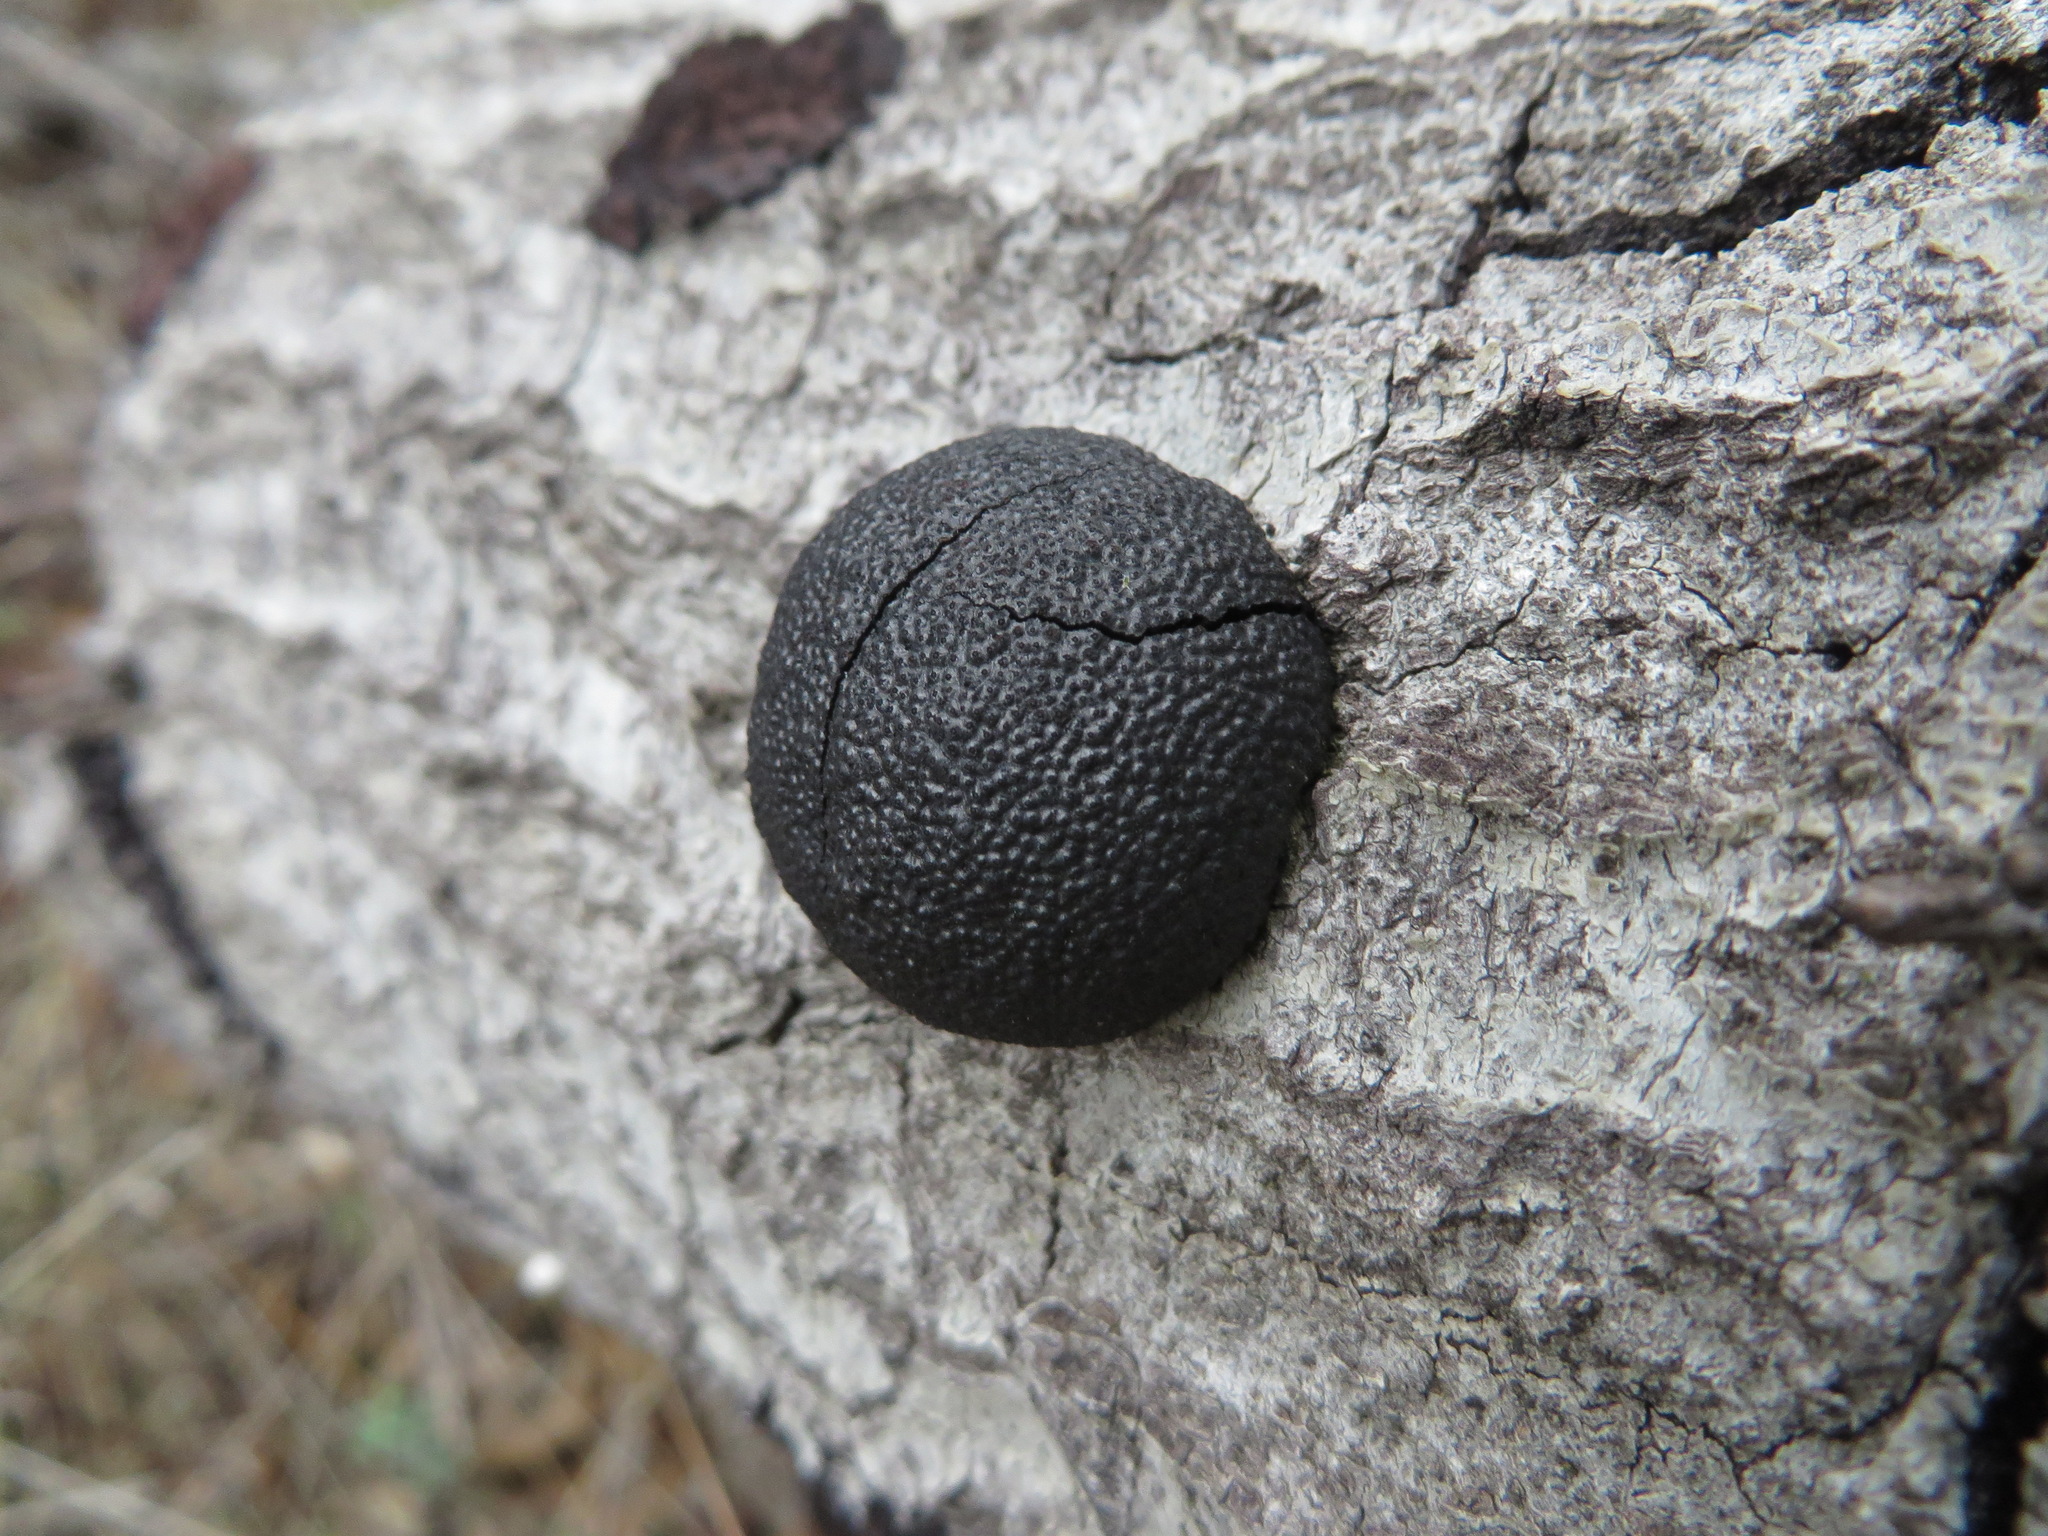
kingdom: Fungi
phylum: Ascomycota
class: Sordariomycetes
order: Xylariales
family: Hypoxylaceae
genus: Annulohypoxylon
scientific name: Annulohypoxylon thouarsianum
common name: Cramp balls
